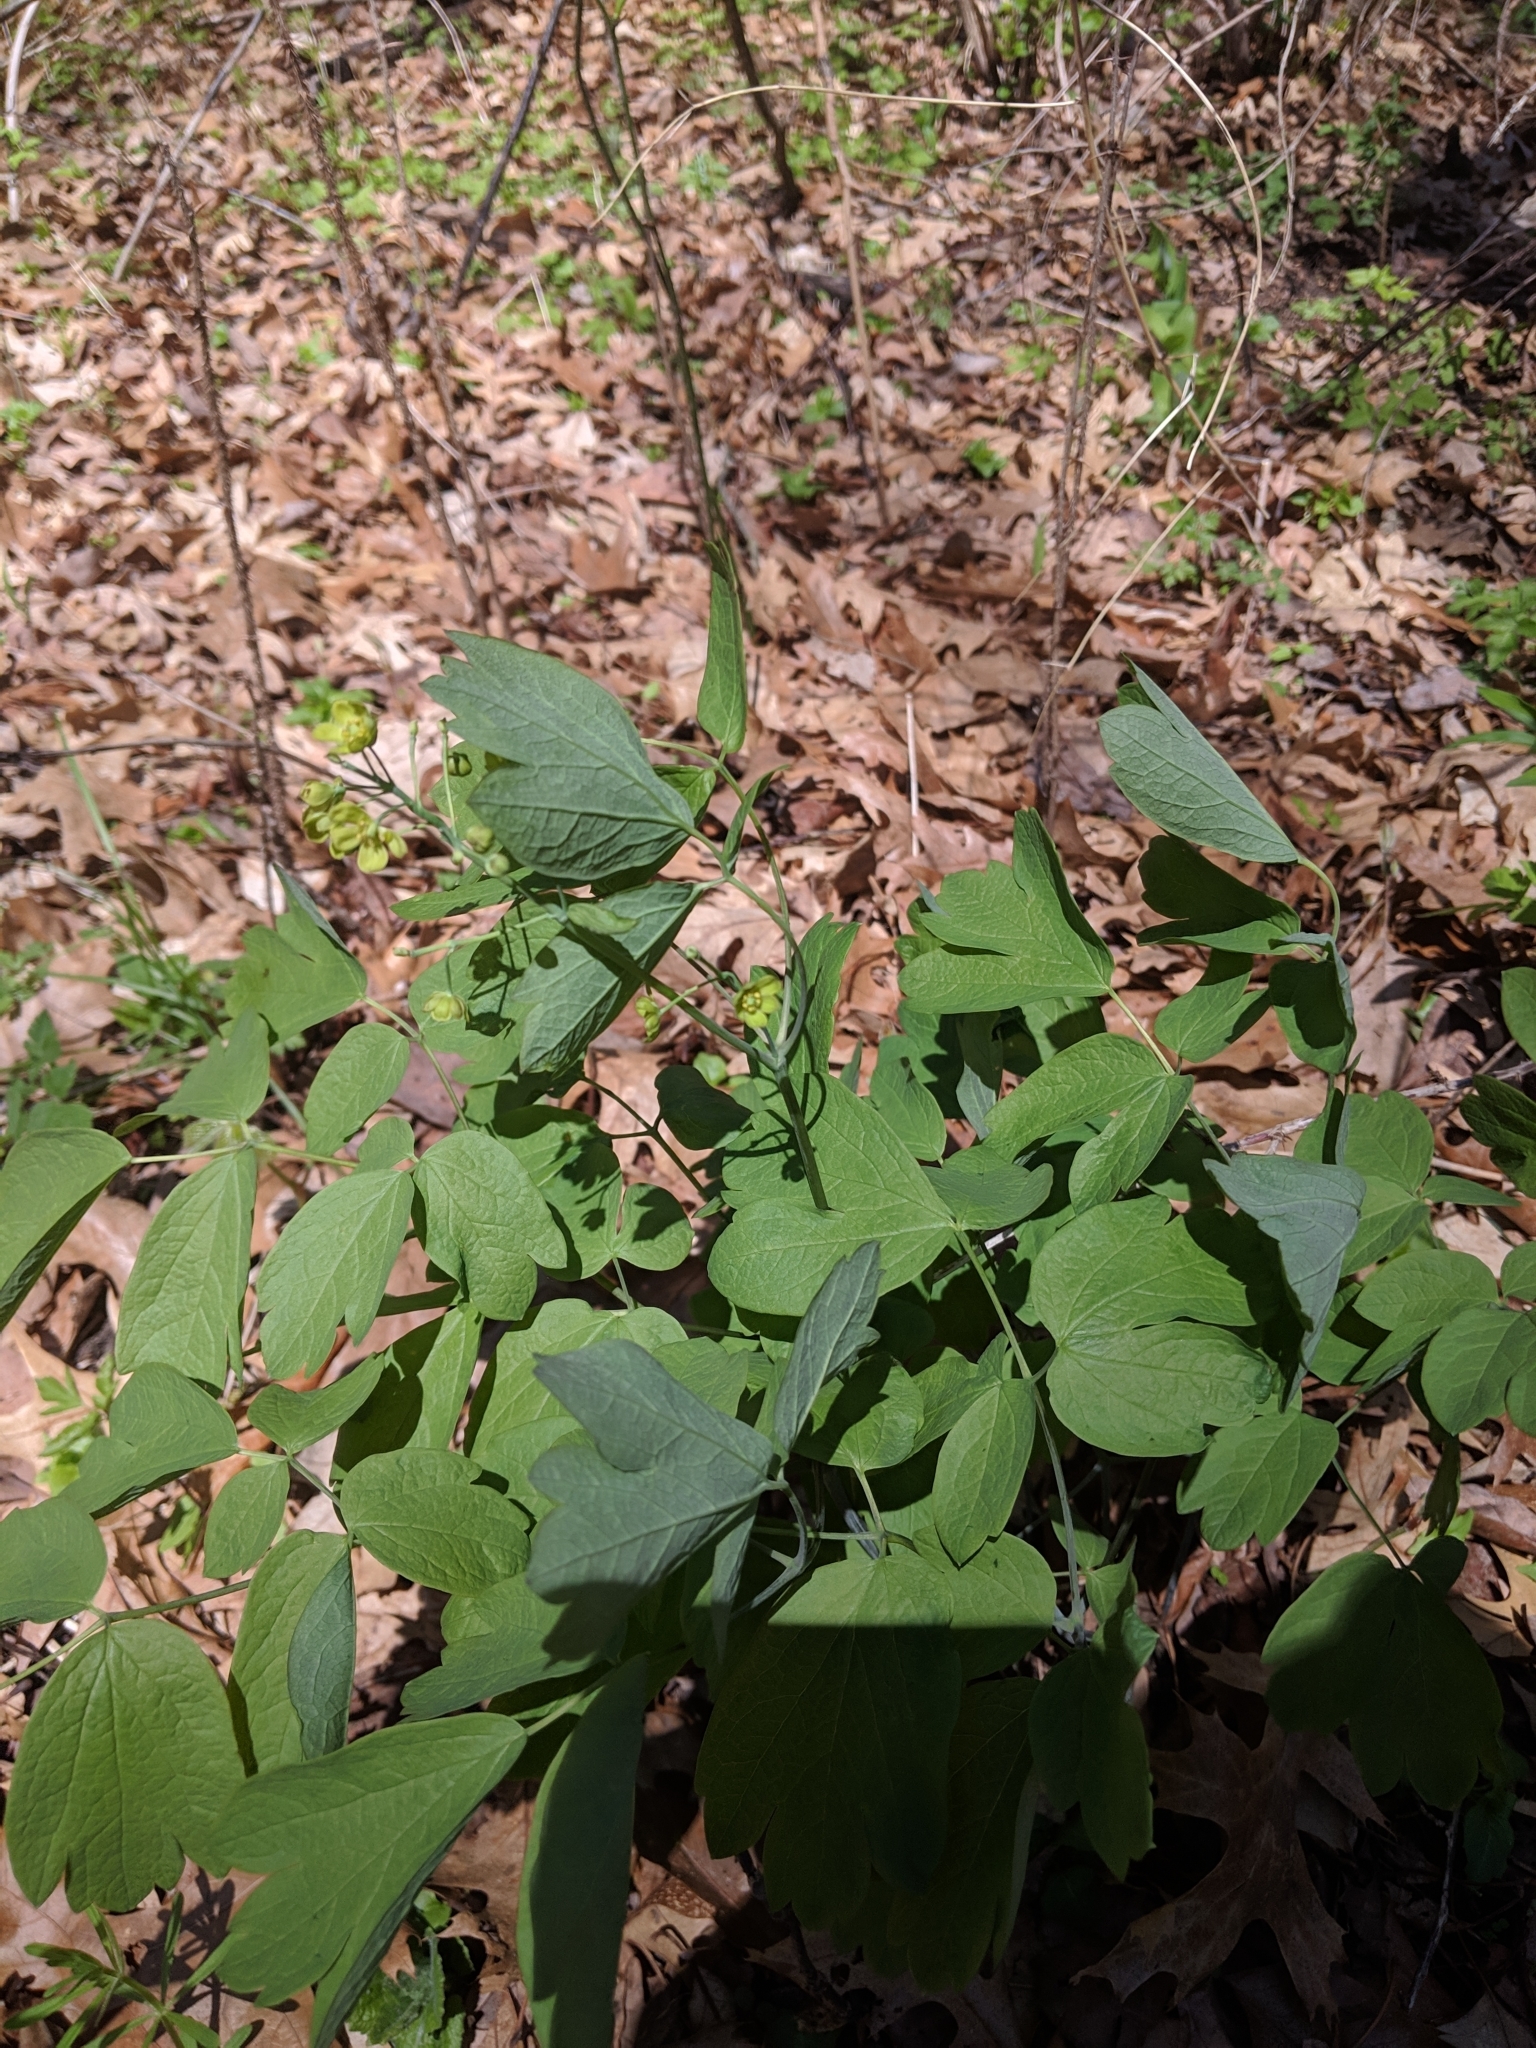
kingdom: Plantae
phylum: Tracheophyta
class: Magnoliopsida
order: Ranunculales
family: Berberidaceae
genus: Caulophyllum
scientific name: Caulophyllum thalictroides
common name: Blue cohosh
